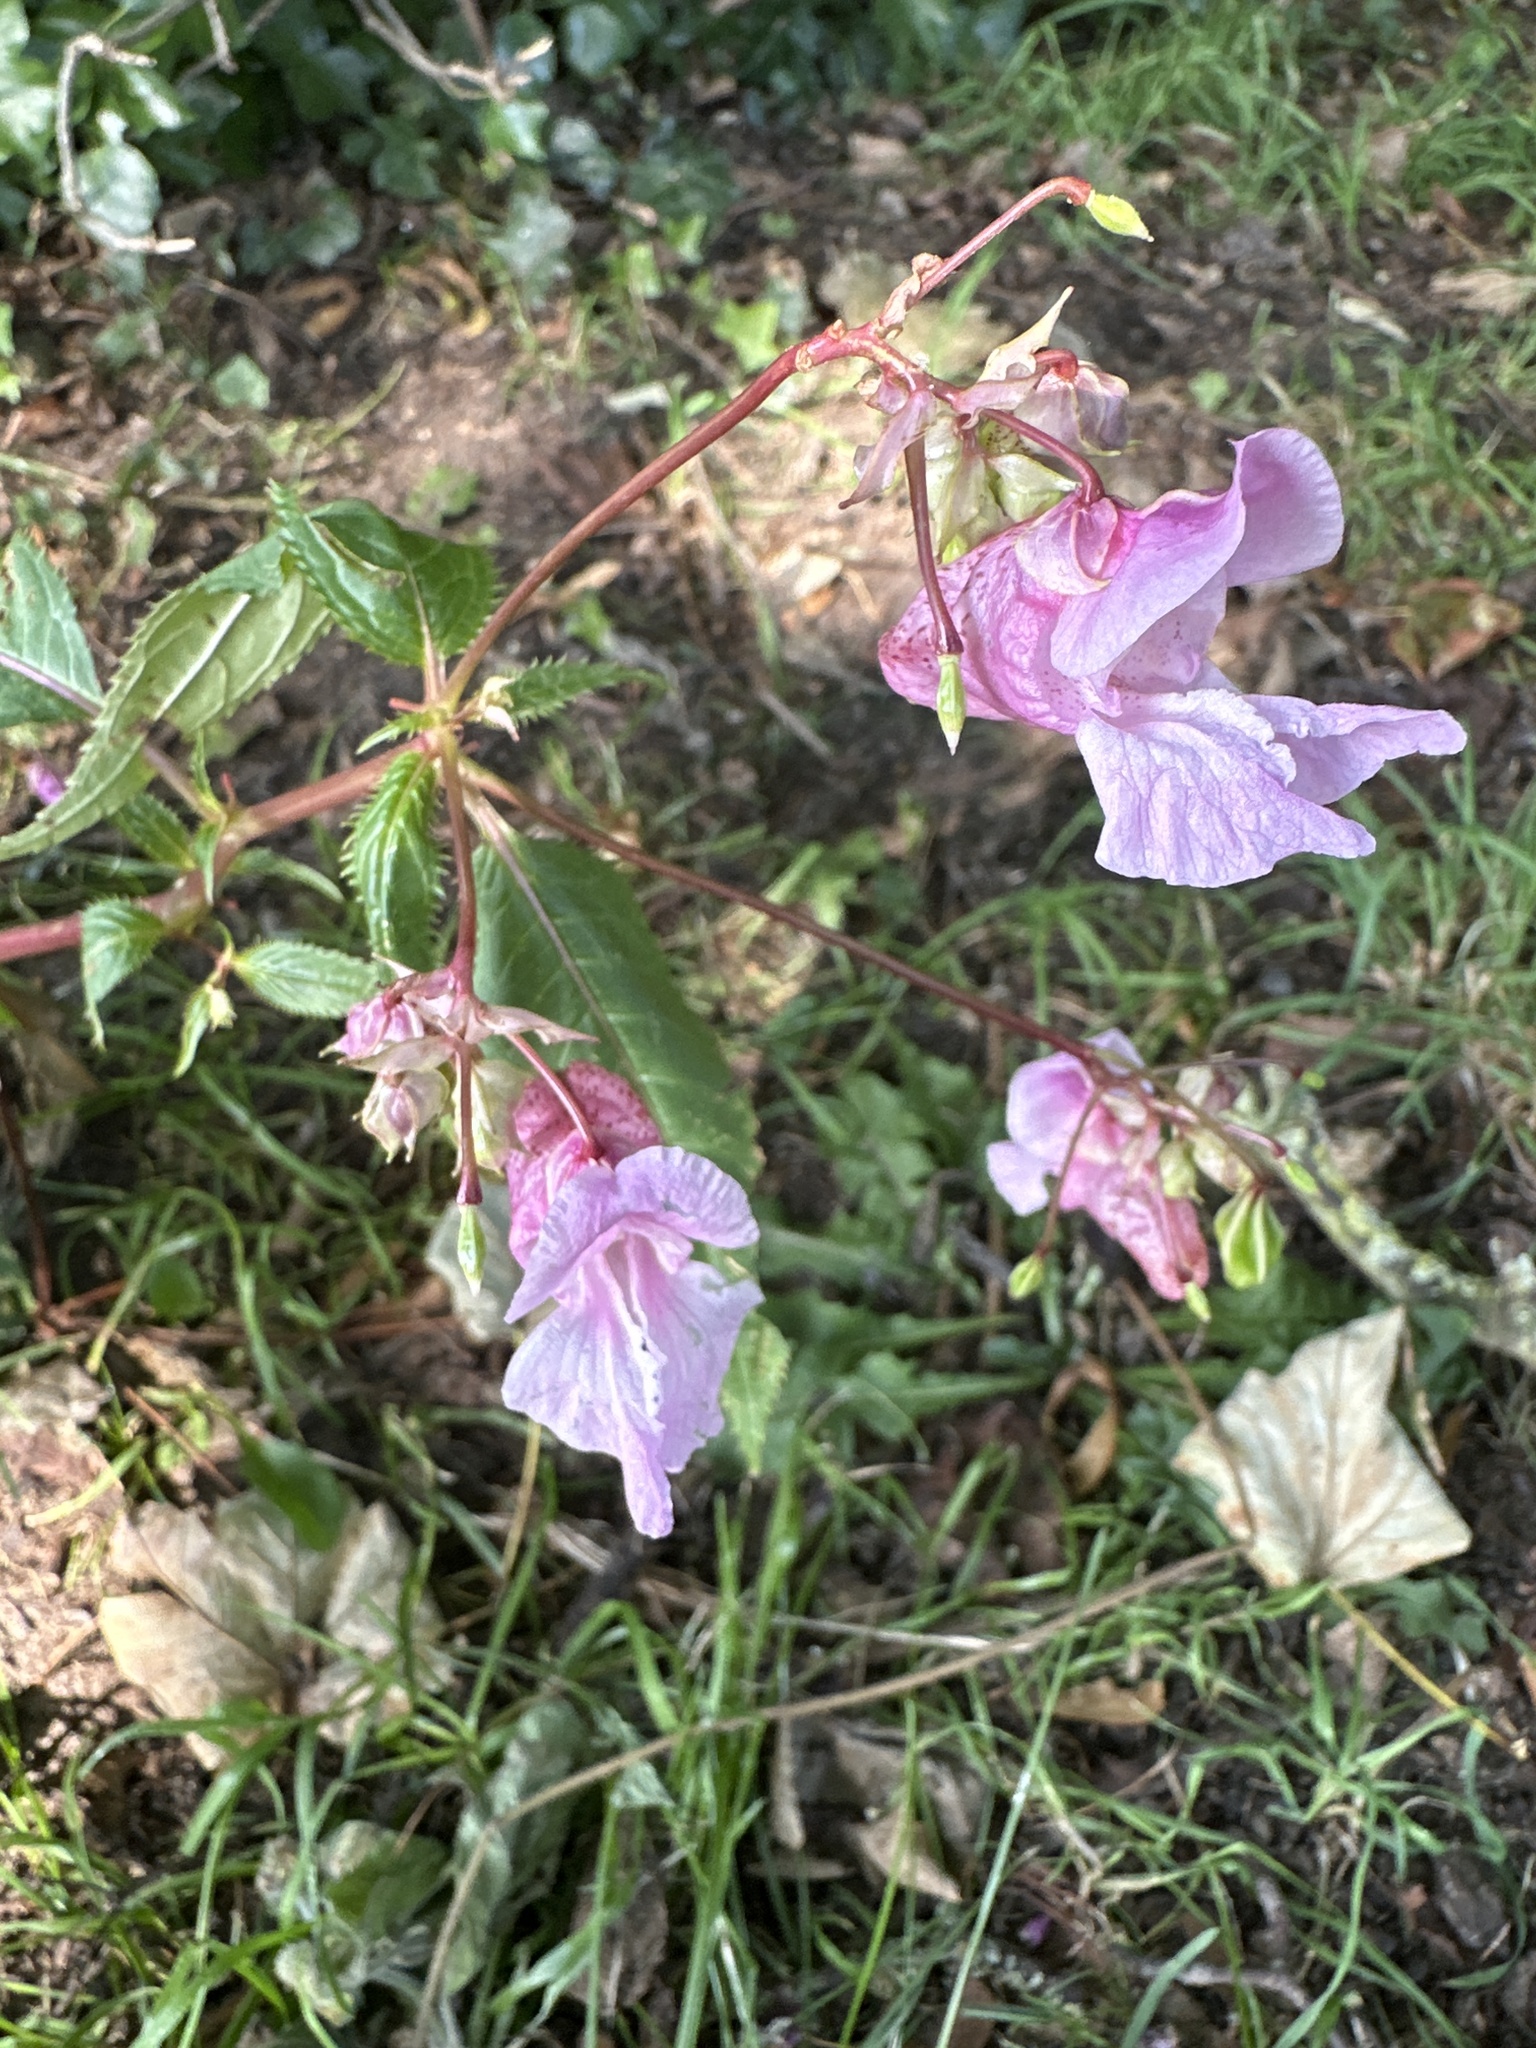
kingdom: Plantae
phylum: Tracheophyta
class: Magnoliopsida
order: Ericales
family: Balsaminaceae
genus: Impatiens
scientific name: Impatiens glandulifera
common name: Himalayan balsam
